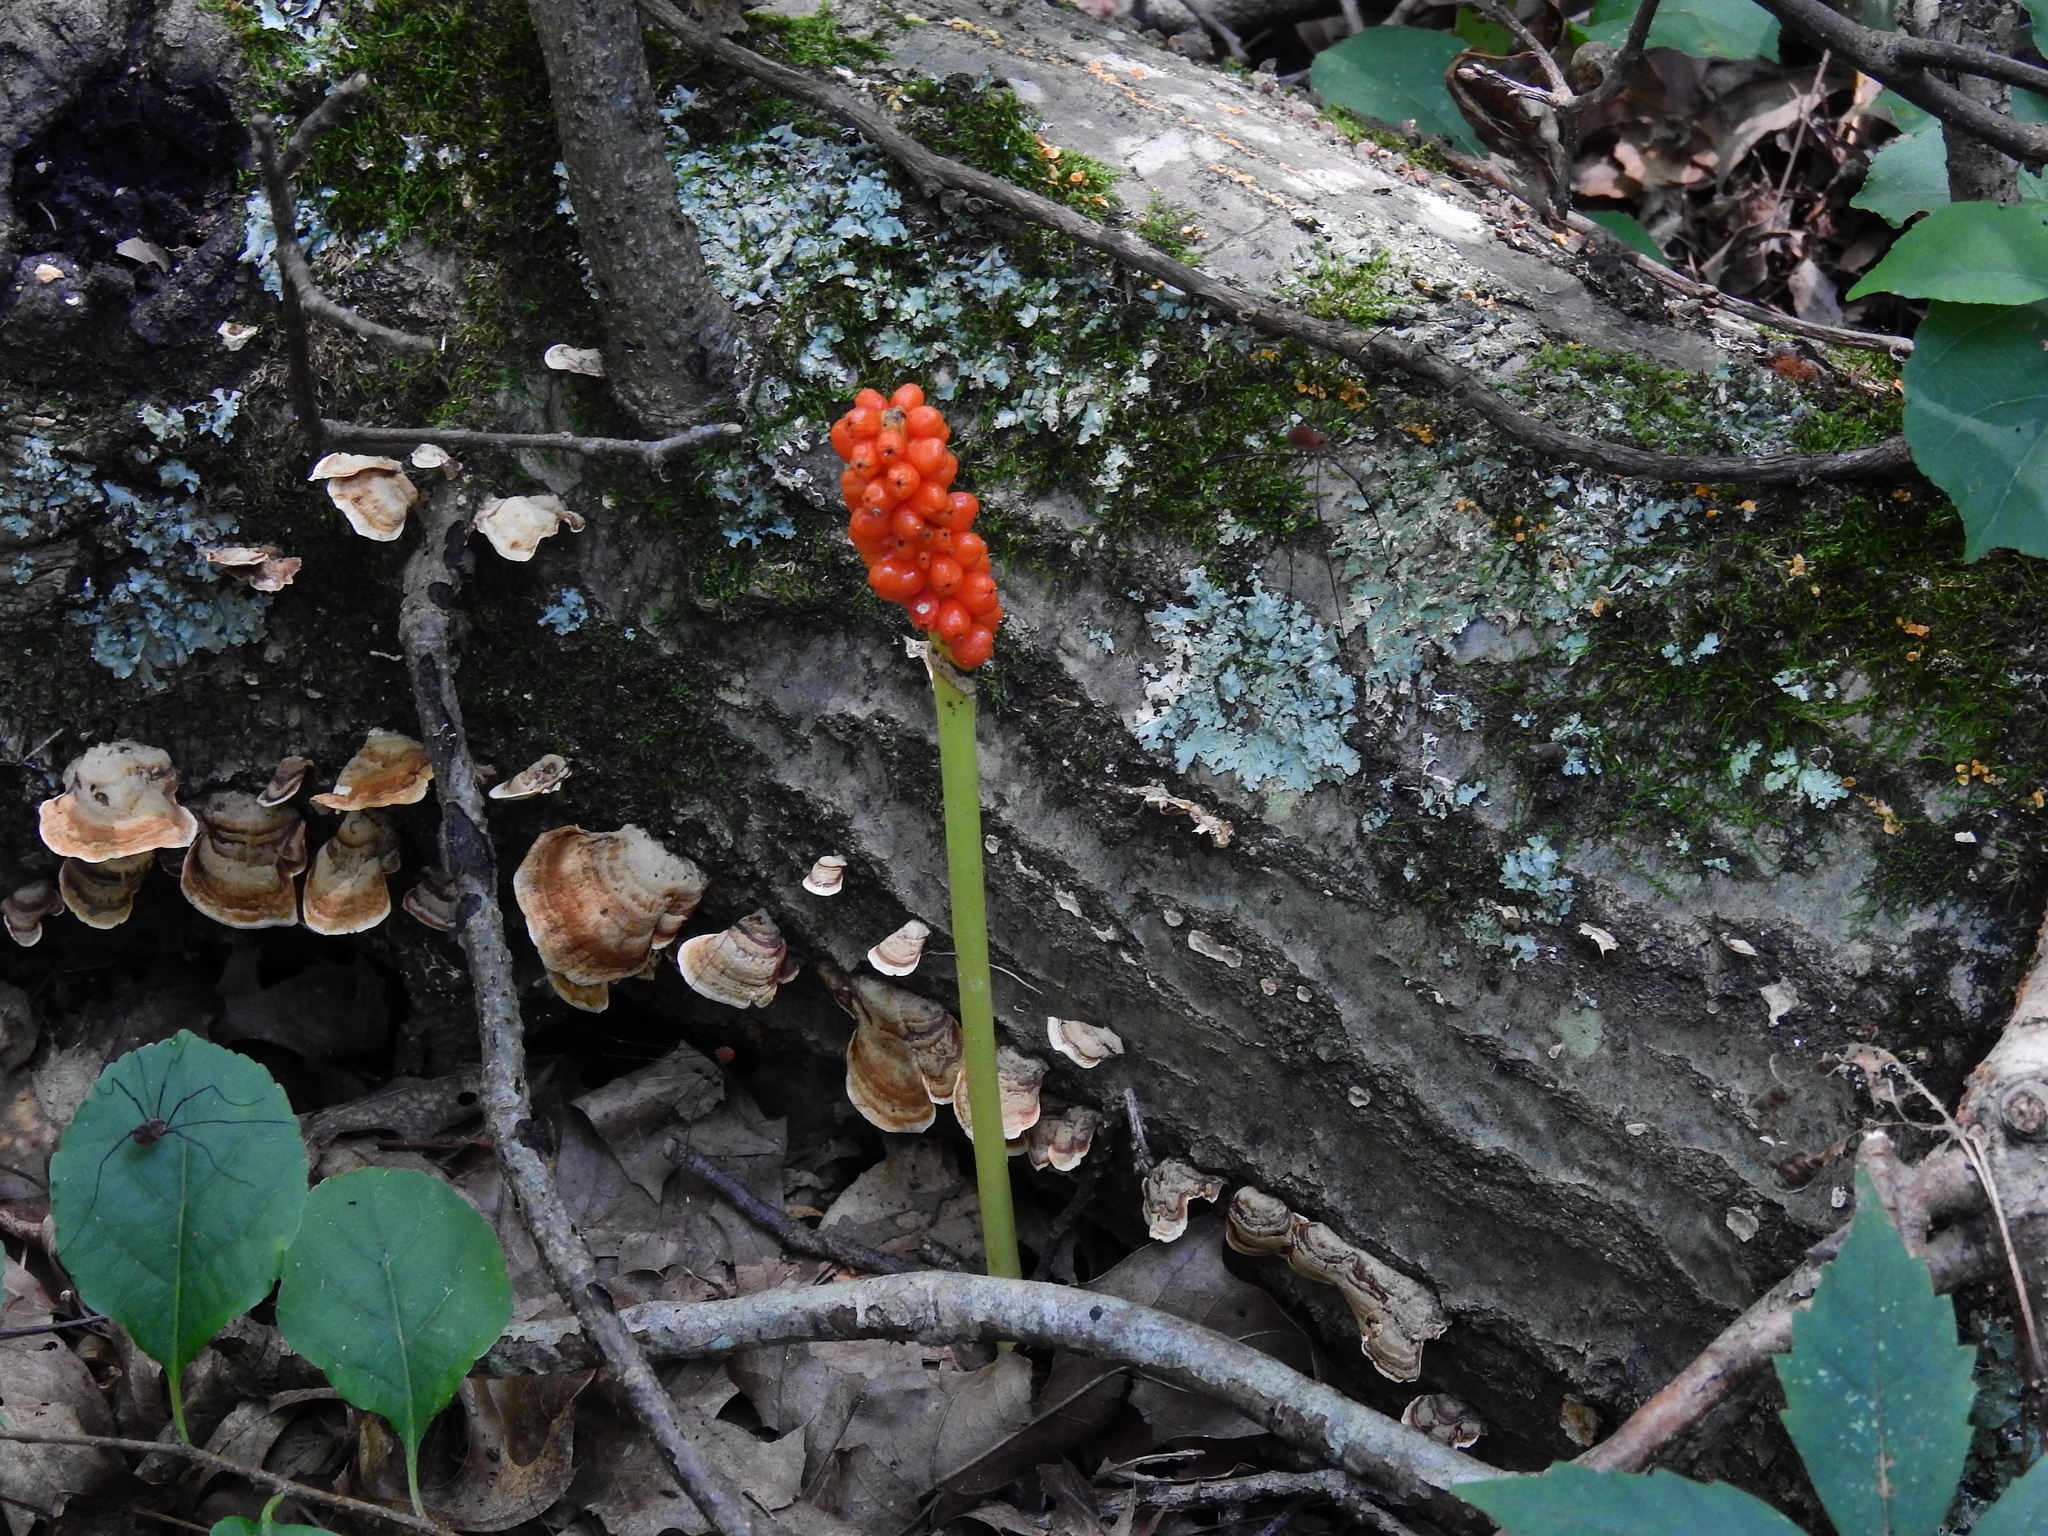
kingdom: Plantae
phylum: Tracheophyta
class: Liliopsida
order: Alismatales
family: Araceae
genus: Arisaema
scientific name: Arisaema triphyllum
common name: Jack-in-the-pulpit
